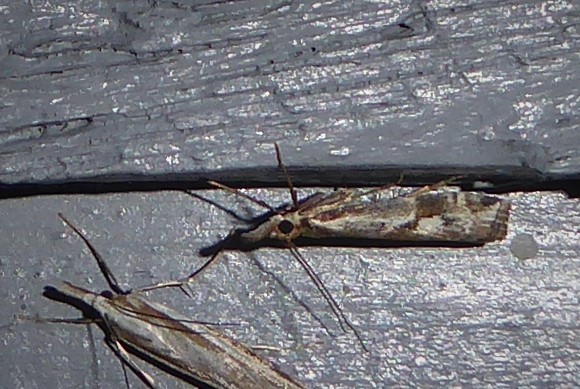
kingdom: Animalia
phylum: Arthropoda
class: Insecta
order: Lepidoptera
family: Crambidae
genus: Orocrambus
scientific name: Orocrambus vulgaris
